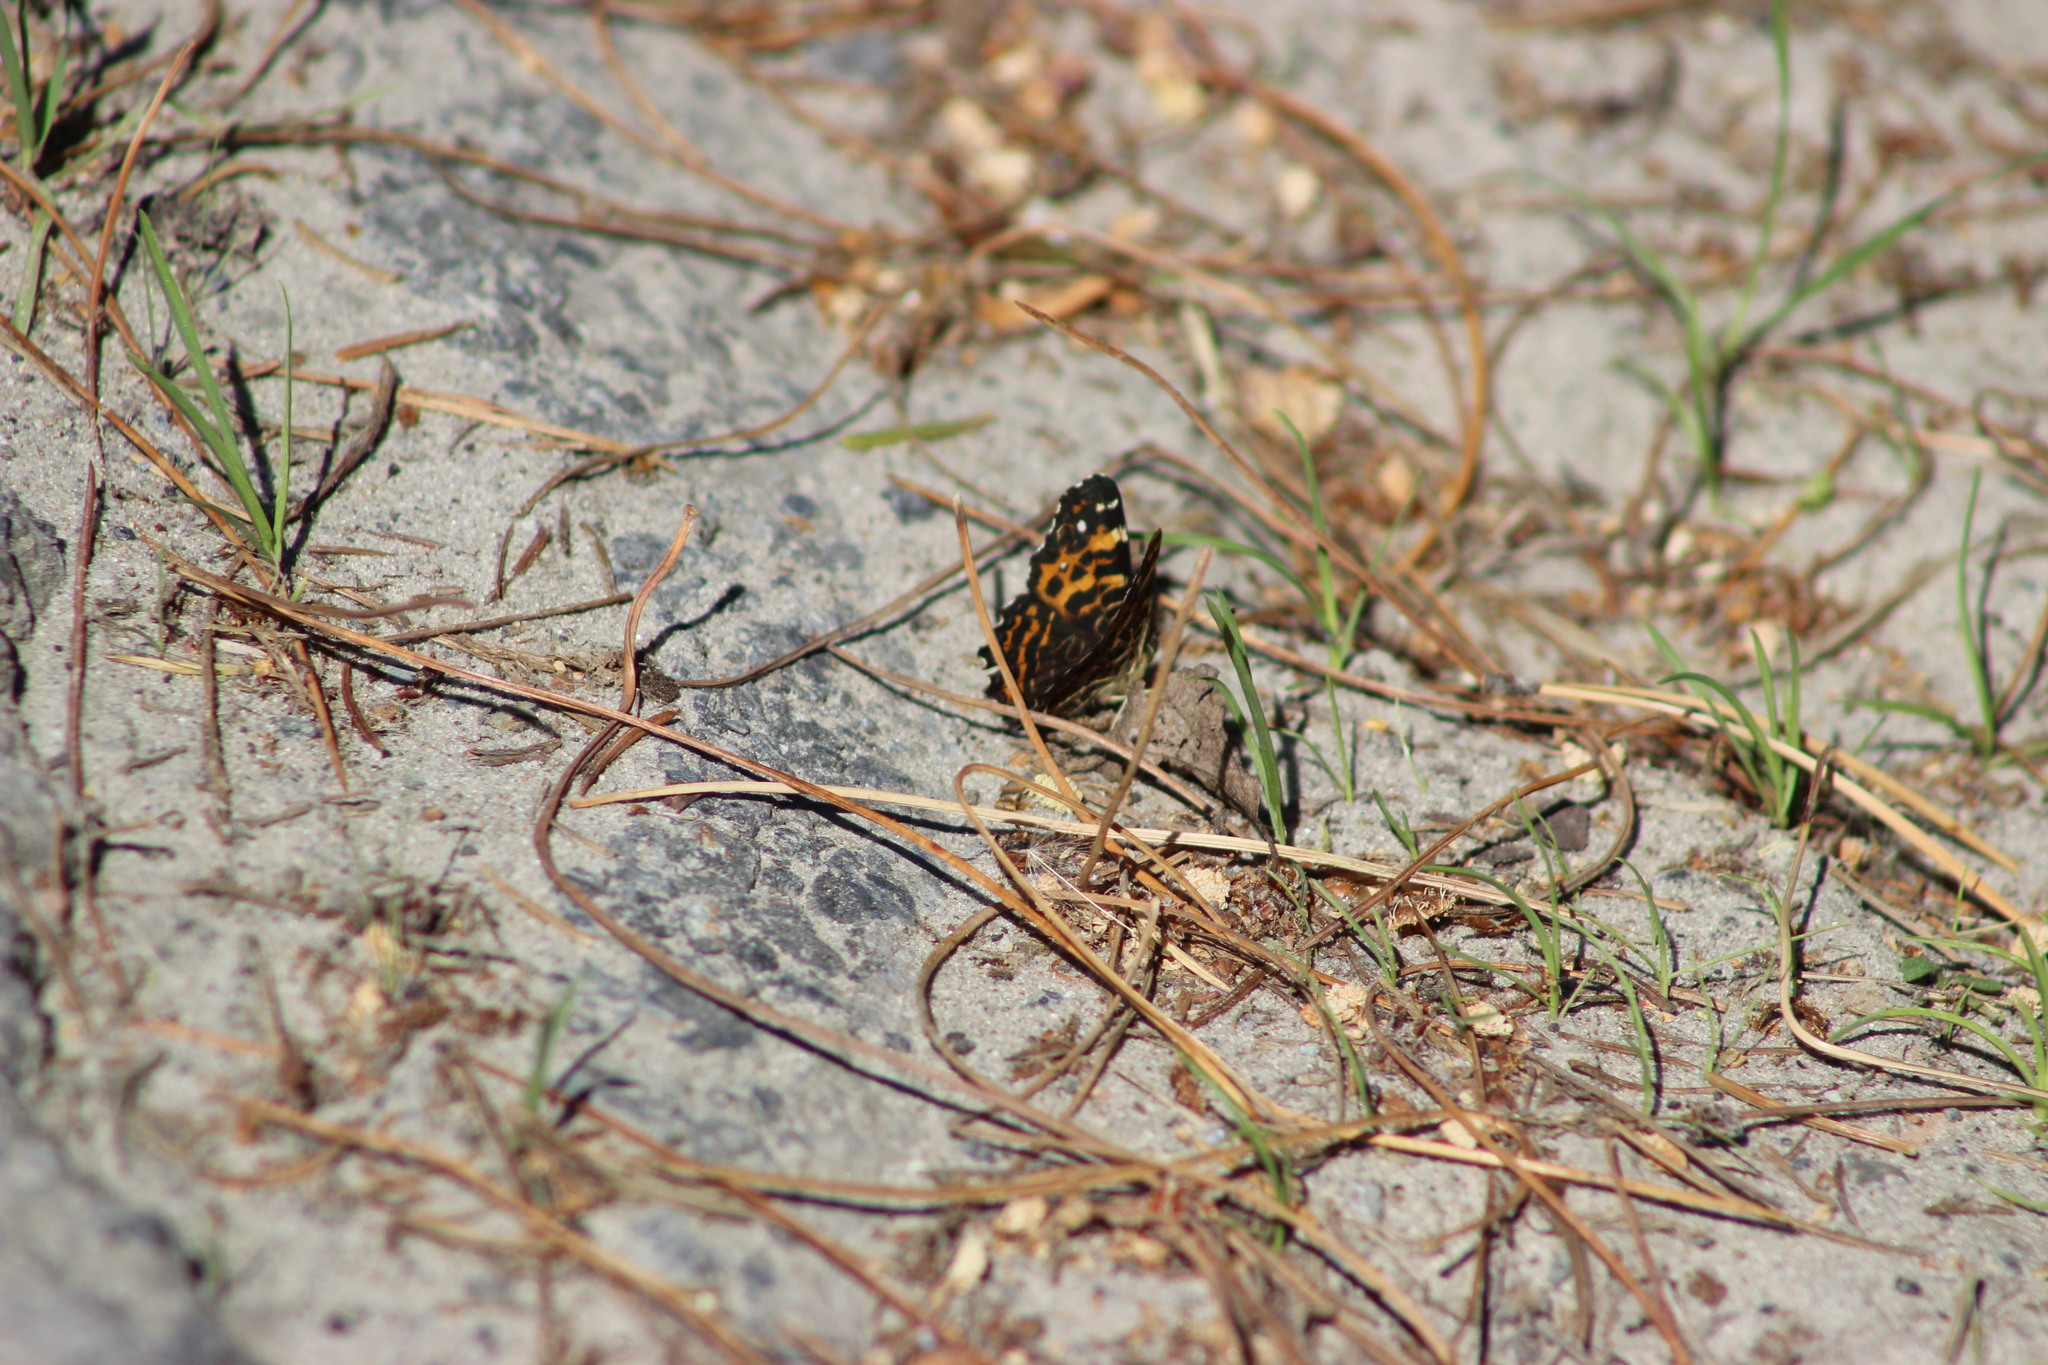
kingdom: Animalia
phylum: Arthropoda
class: Insecta
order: Lepidoptera
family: Nymphalidae
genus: Araschnia
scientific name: Araschnia levana
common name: Map butterfly
